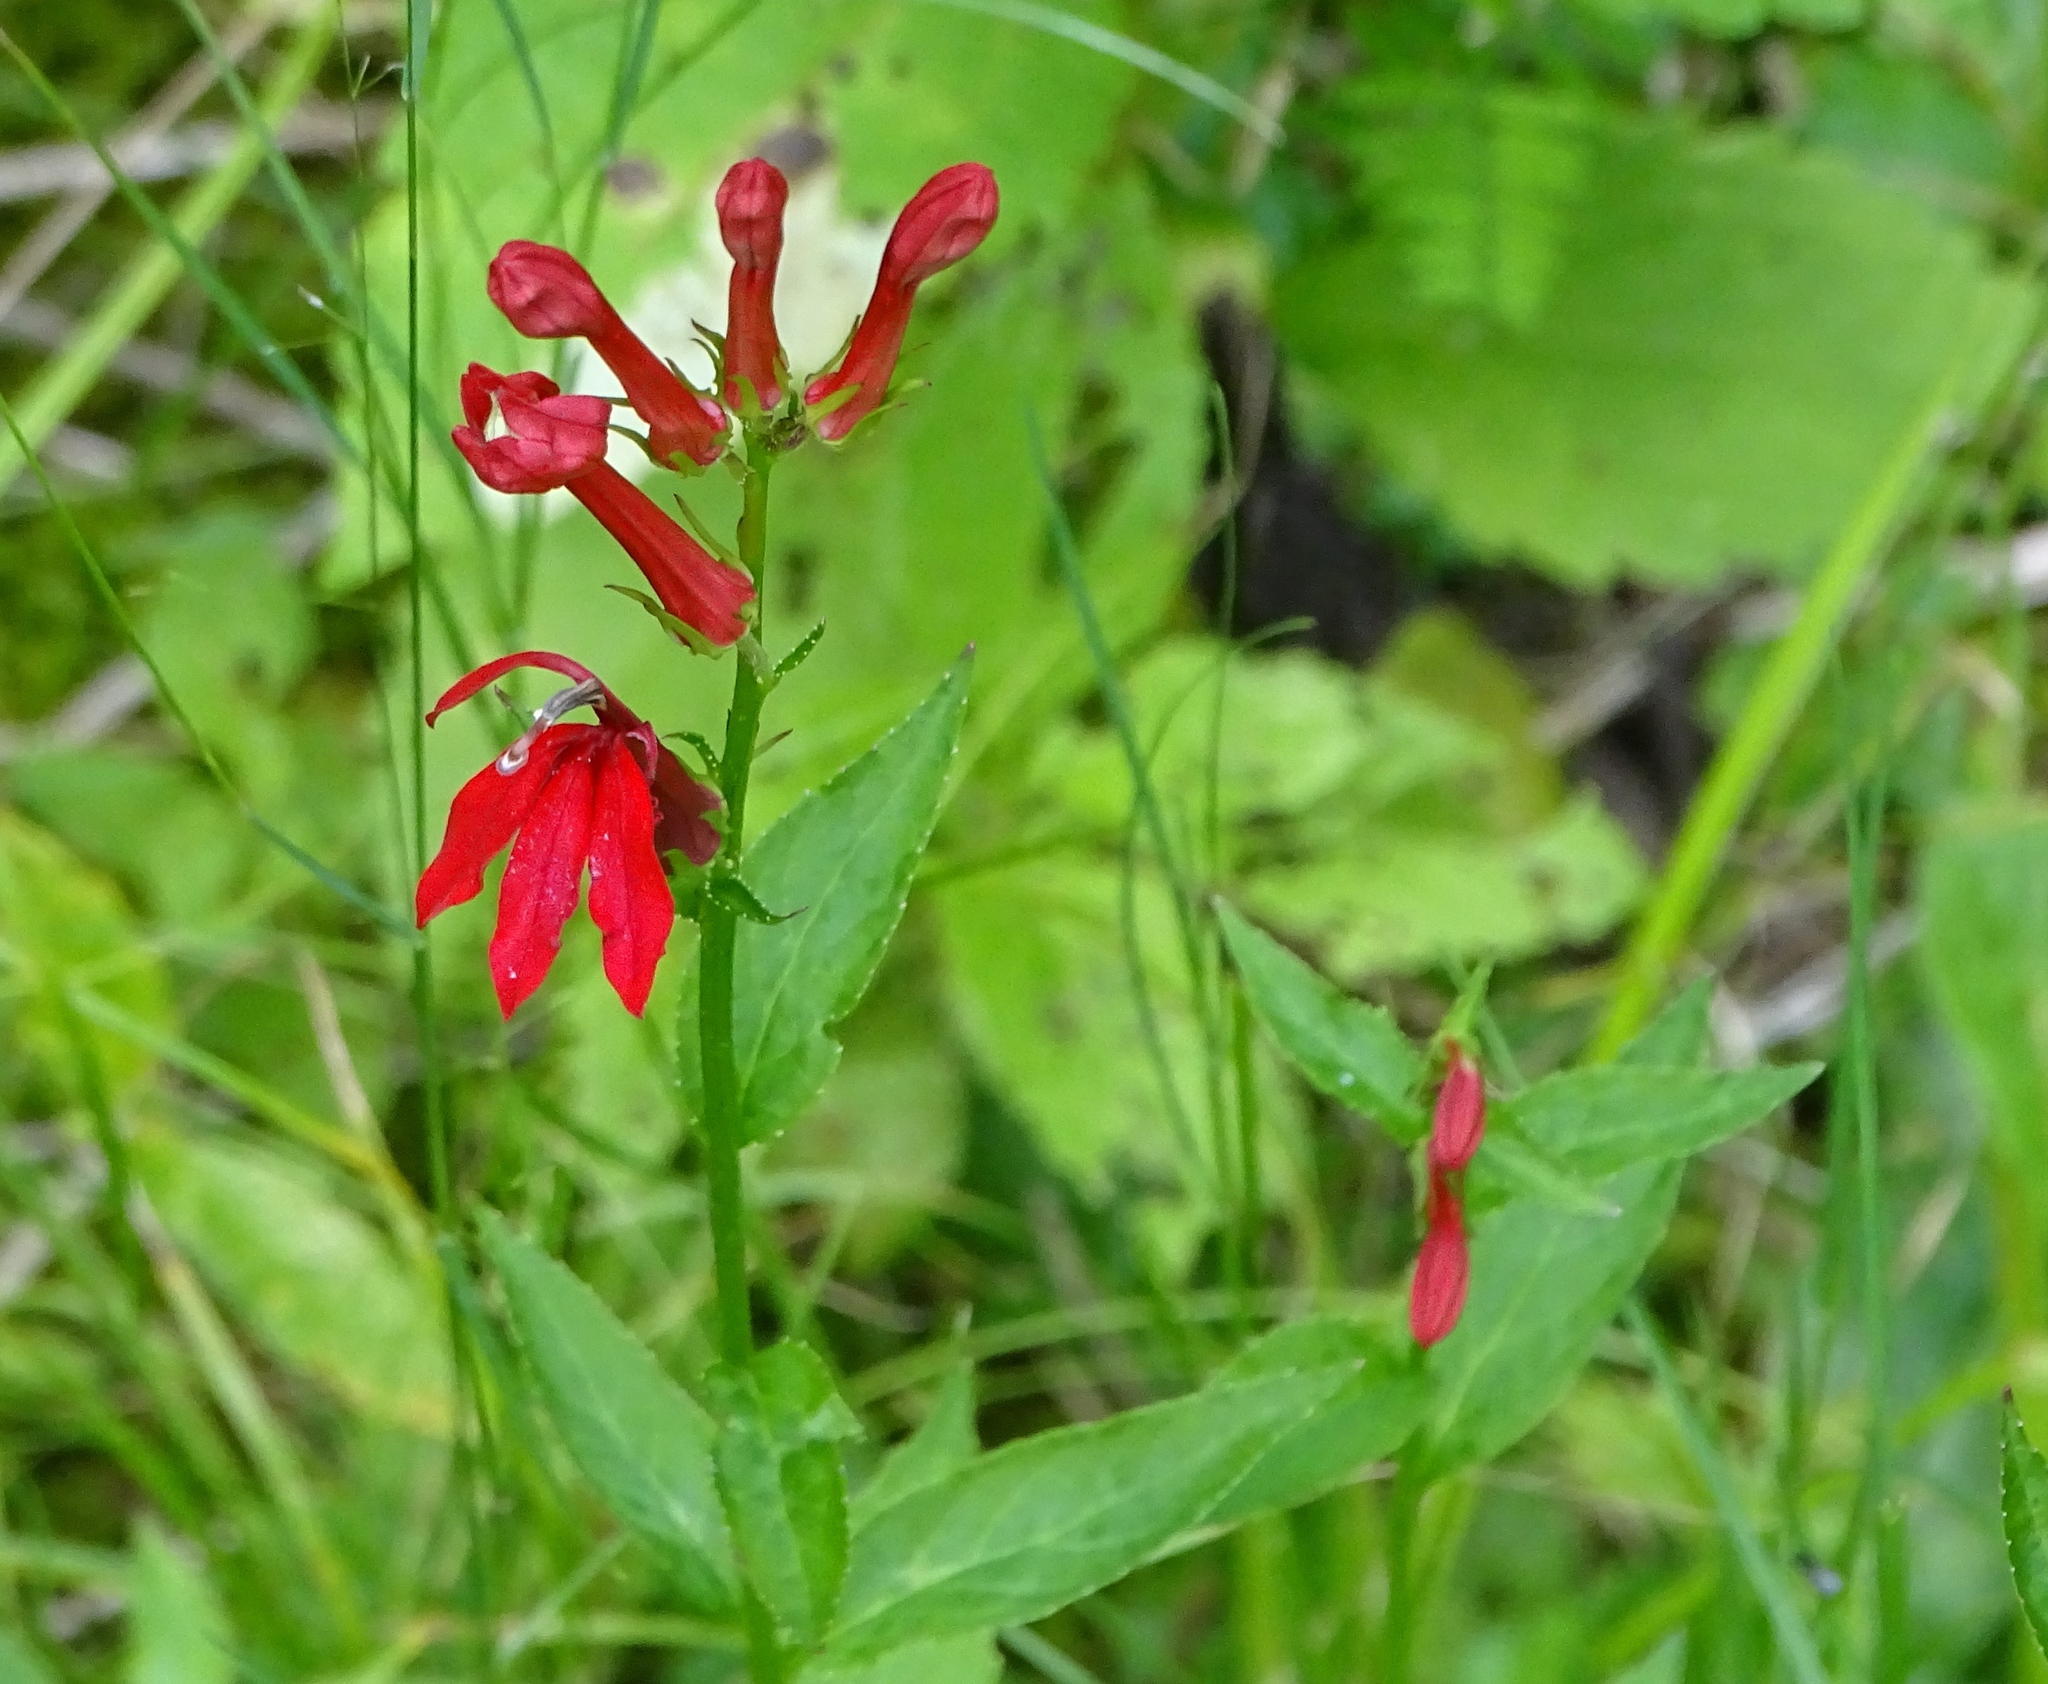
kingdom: Plantae
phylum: Tracheophyta
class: Magnoliopsida
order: Asterales
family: Campanulaceae
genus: Lobelia
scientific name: Lobelia cardinalis
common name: Cardinal flower
